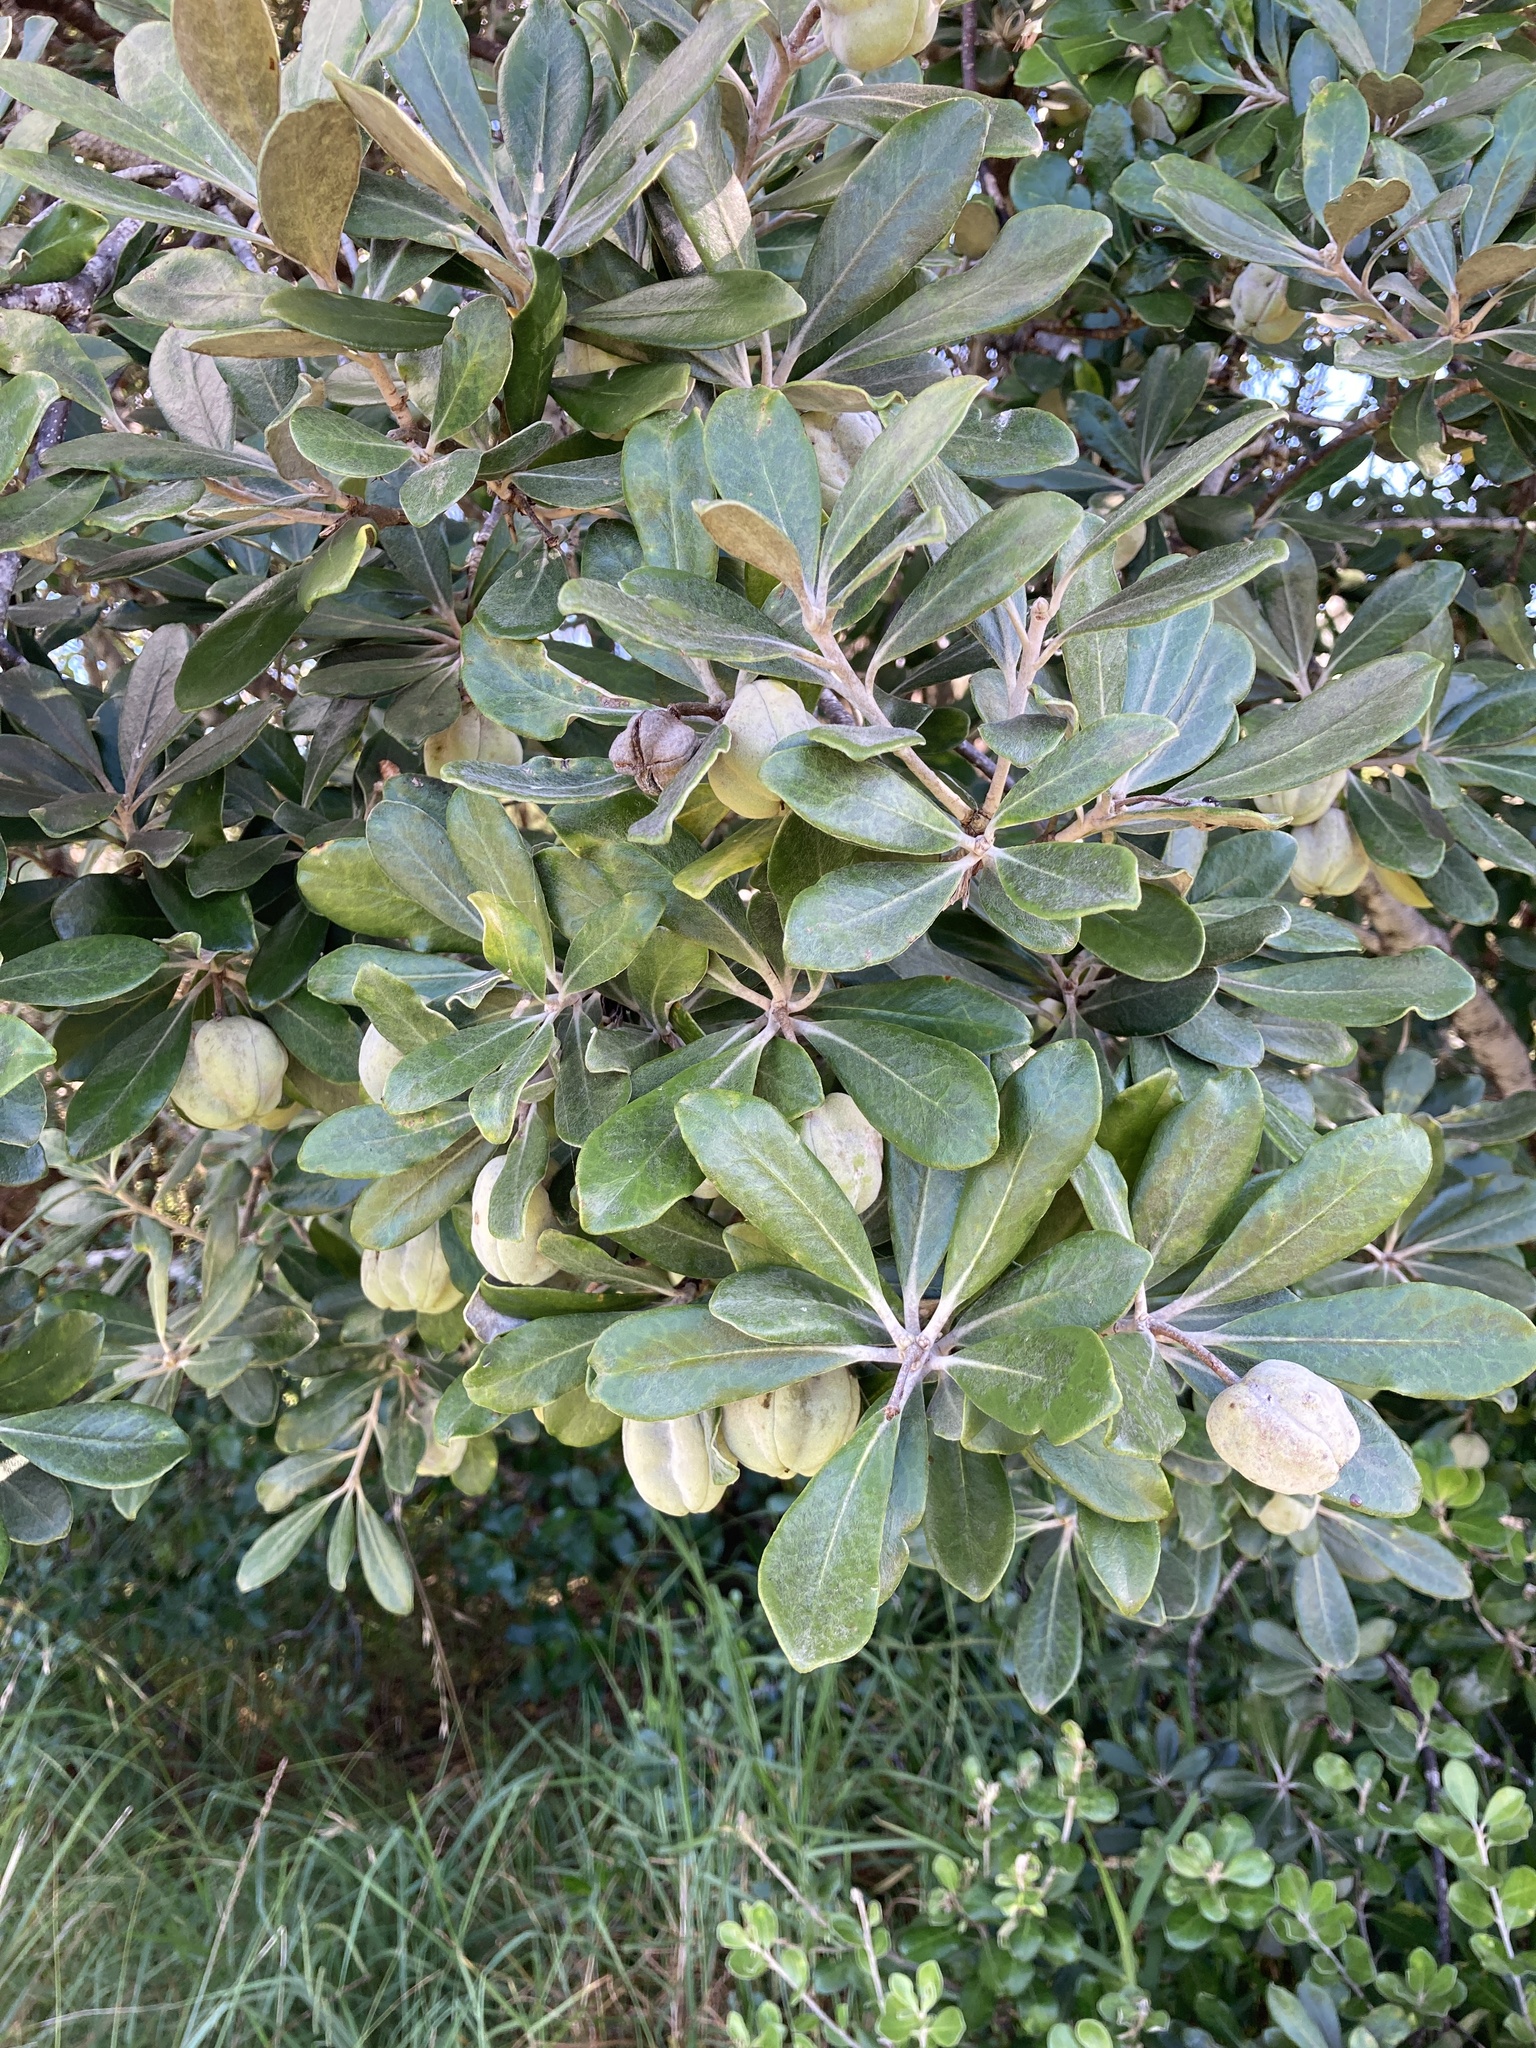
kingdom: Plantae
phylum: Tracheophyta
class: Magnoliopsida
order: Apiales
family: Pittosporaceae
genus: Pittosporum
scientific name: Pittosporum crassifolium
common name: Karo
